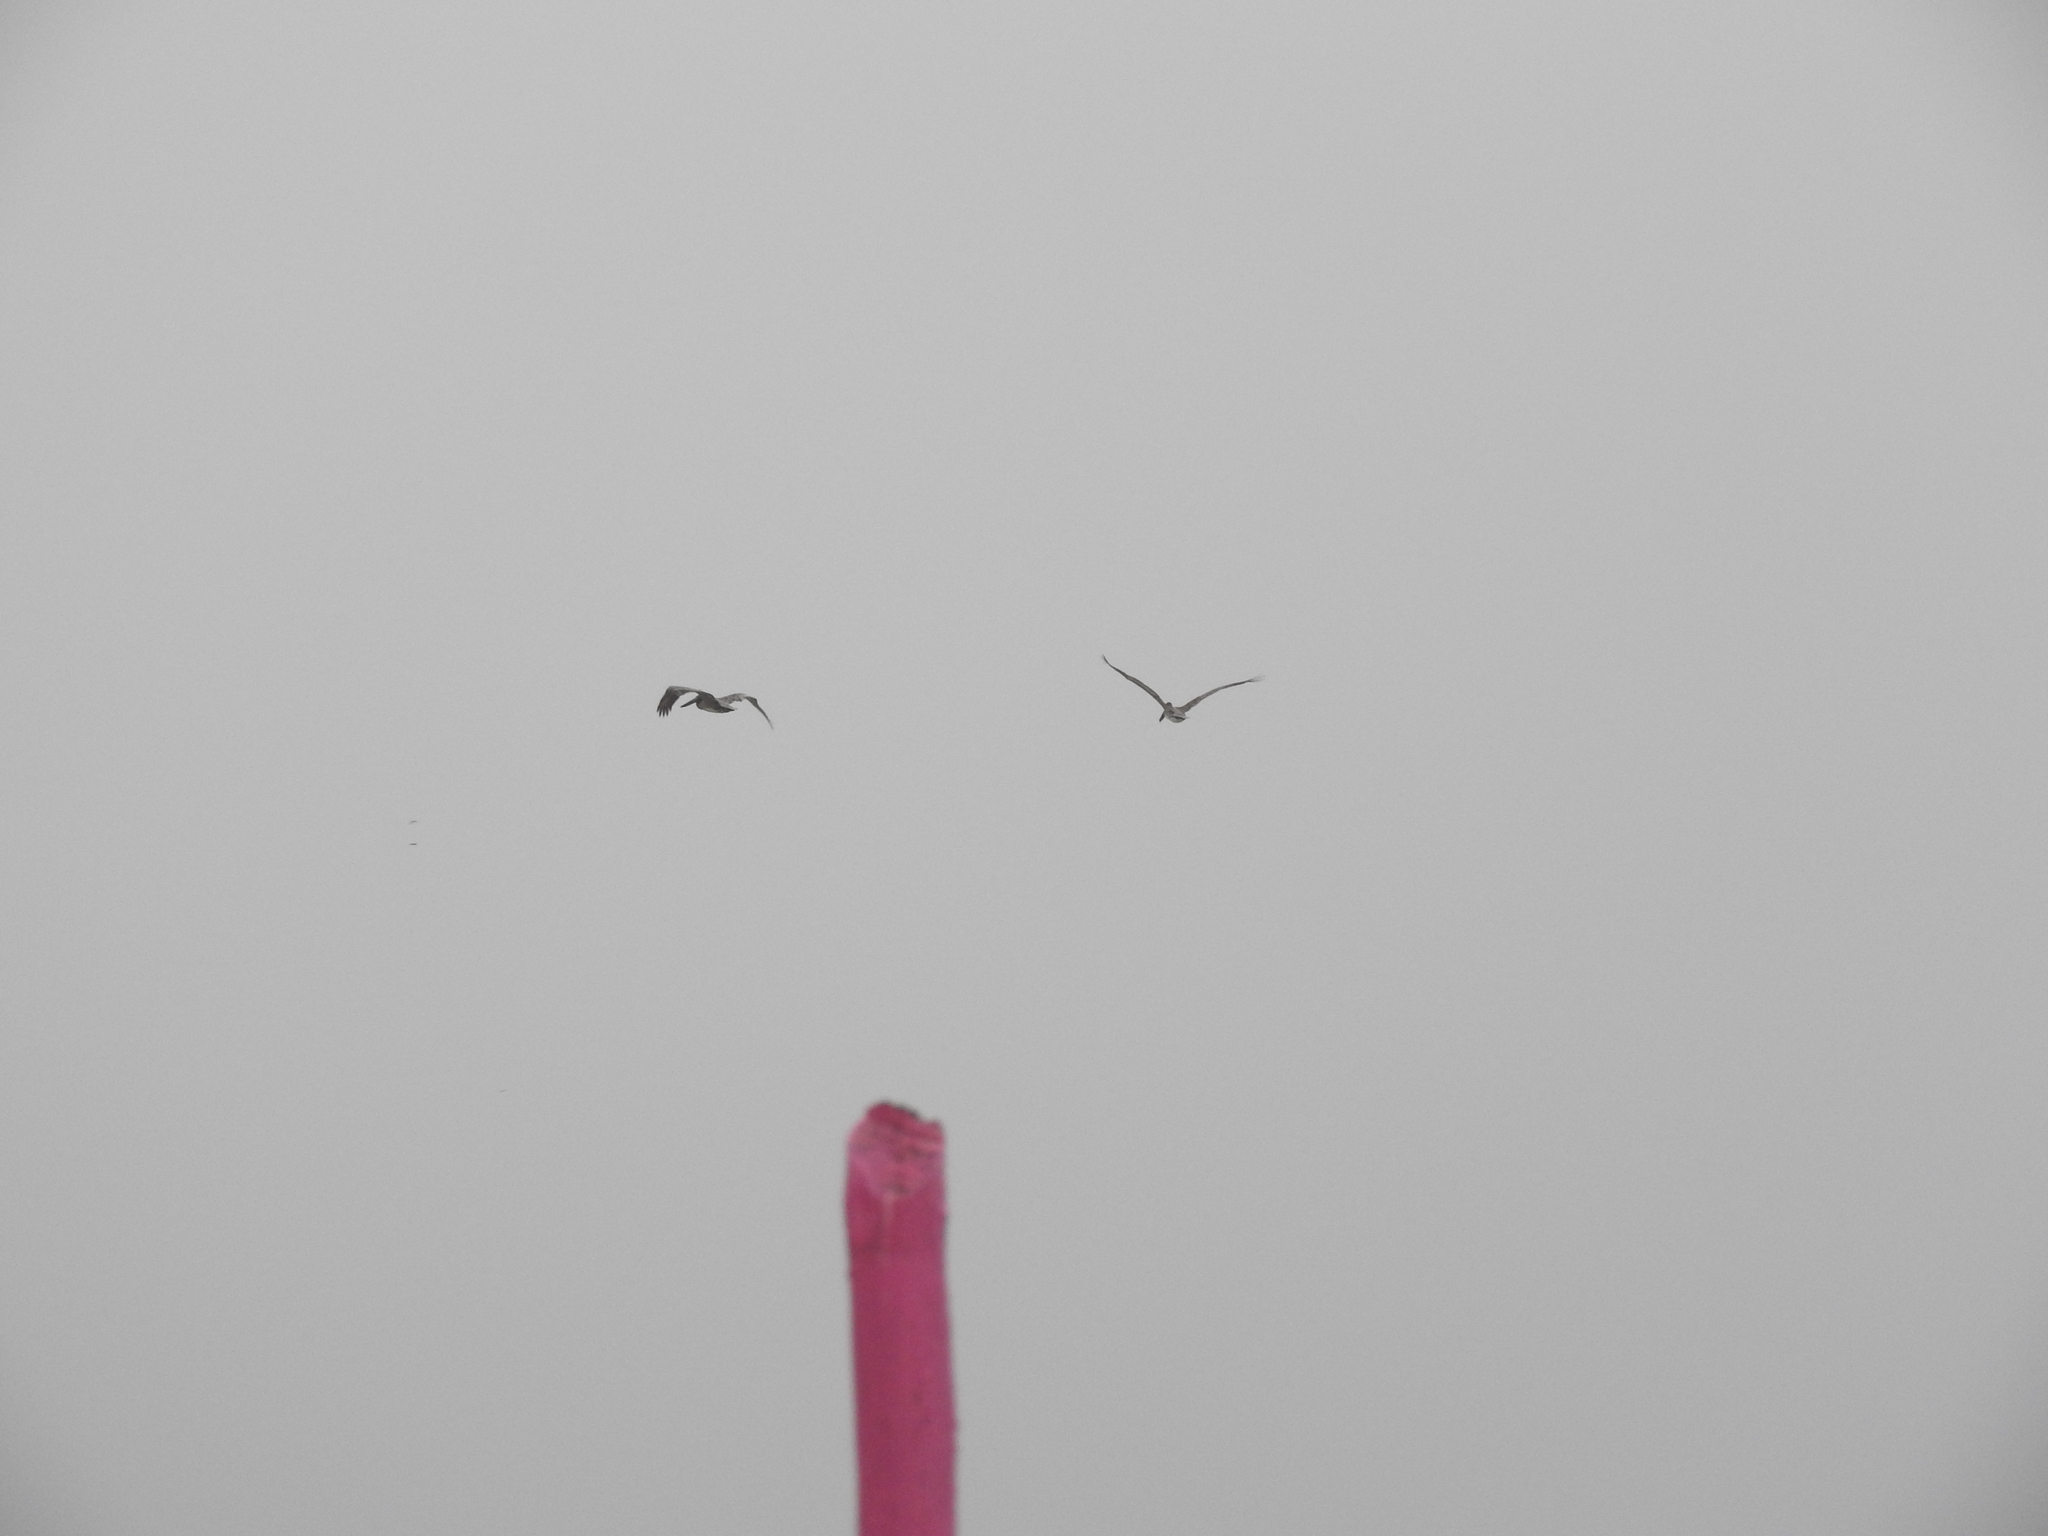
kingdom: Animalia
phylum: Chordata
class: Aves
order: Pelecaniformes
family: Pelecanidae
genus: Pelecanus
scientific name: Pelecanus occidentalis
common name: Brown pelican
